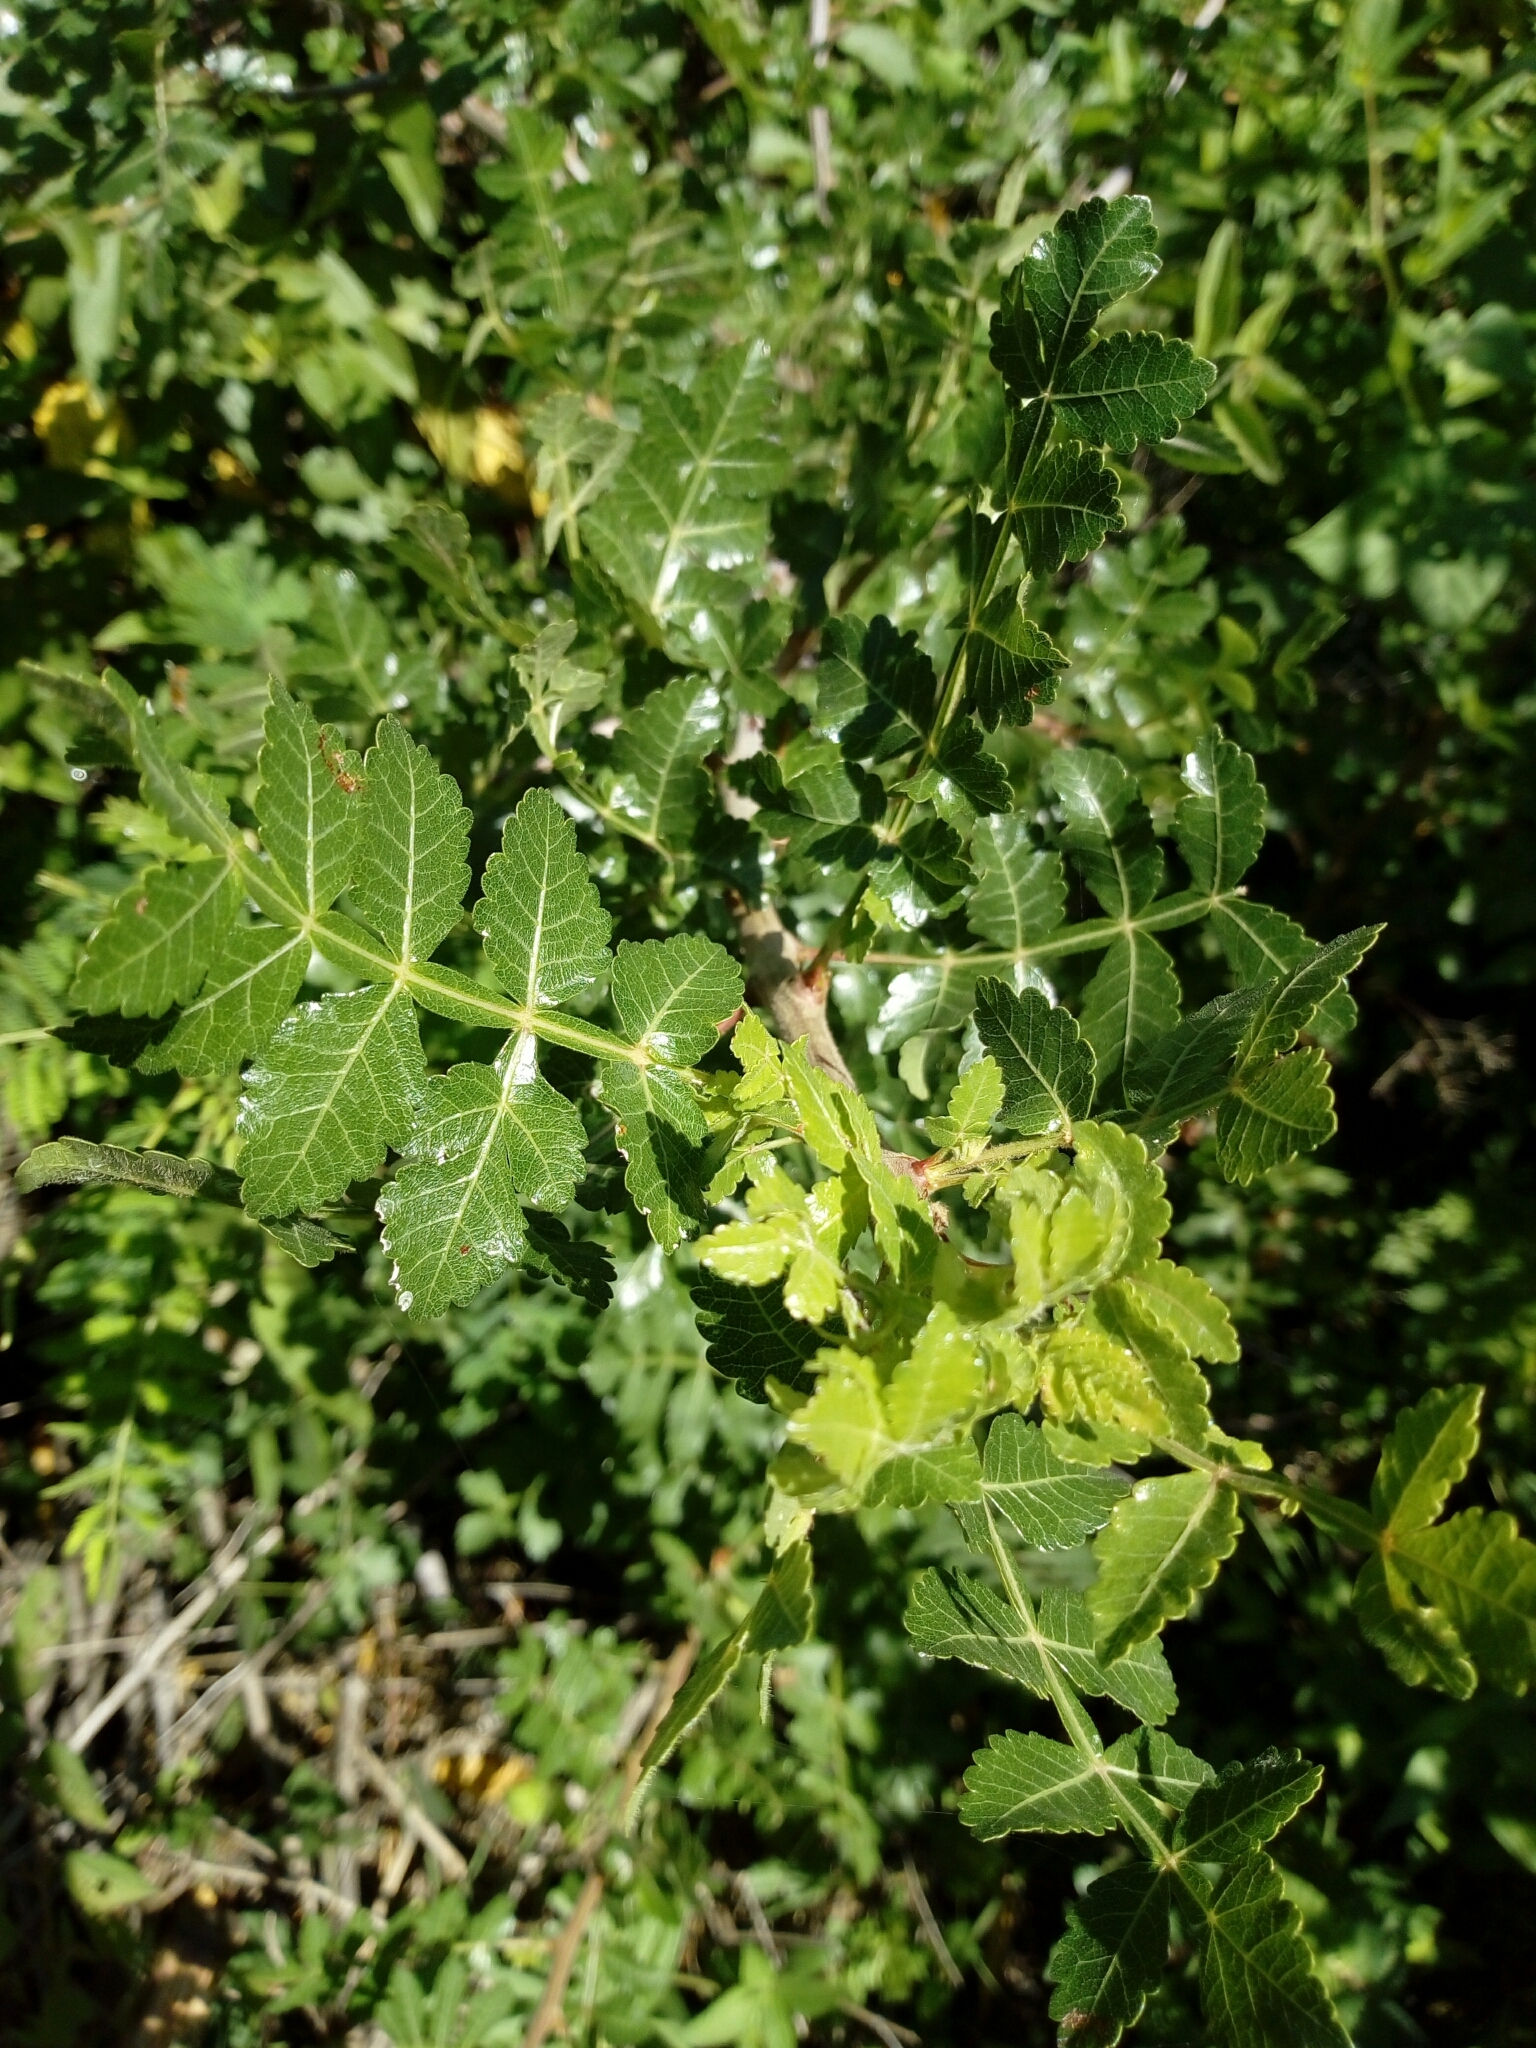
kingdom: Plantae
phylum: Tracheophyta
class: Magnoliopsida
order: Sapindales
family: Burseraceae
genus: Bursera
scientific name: Bursera glabrifolia
